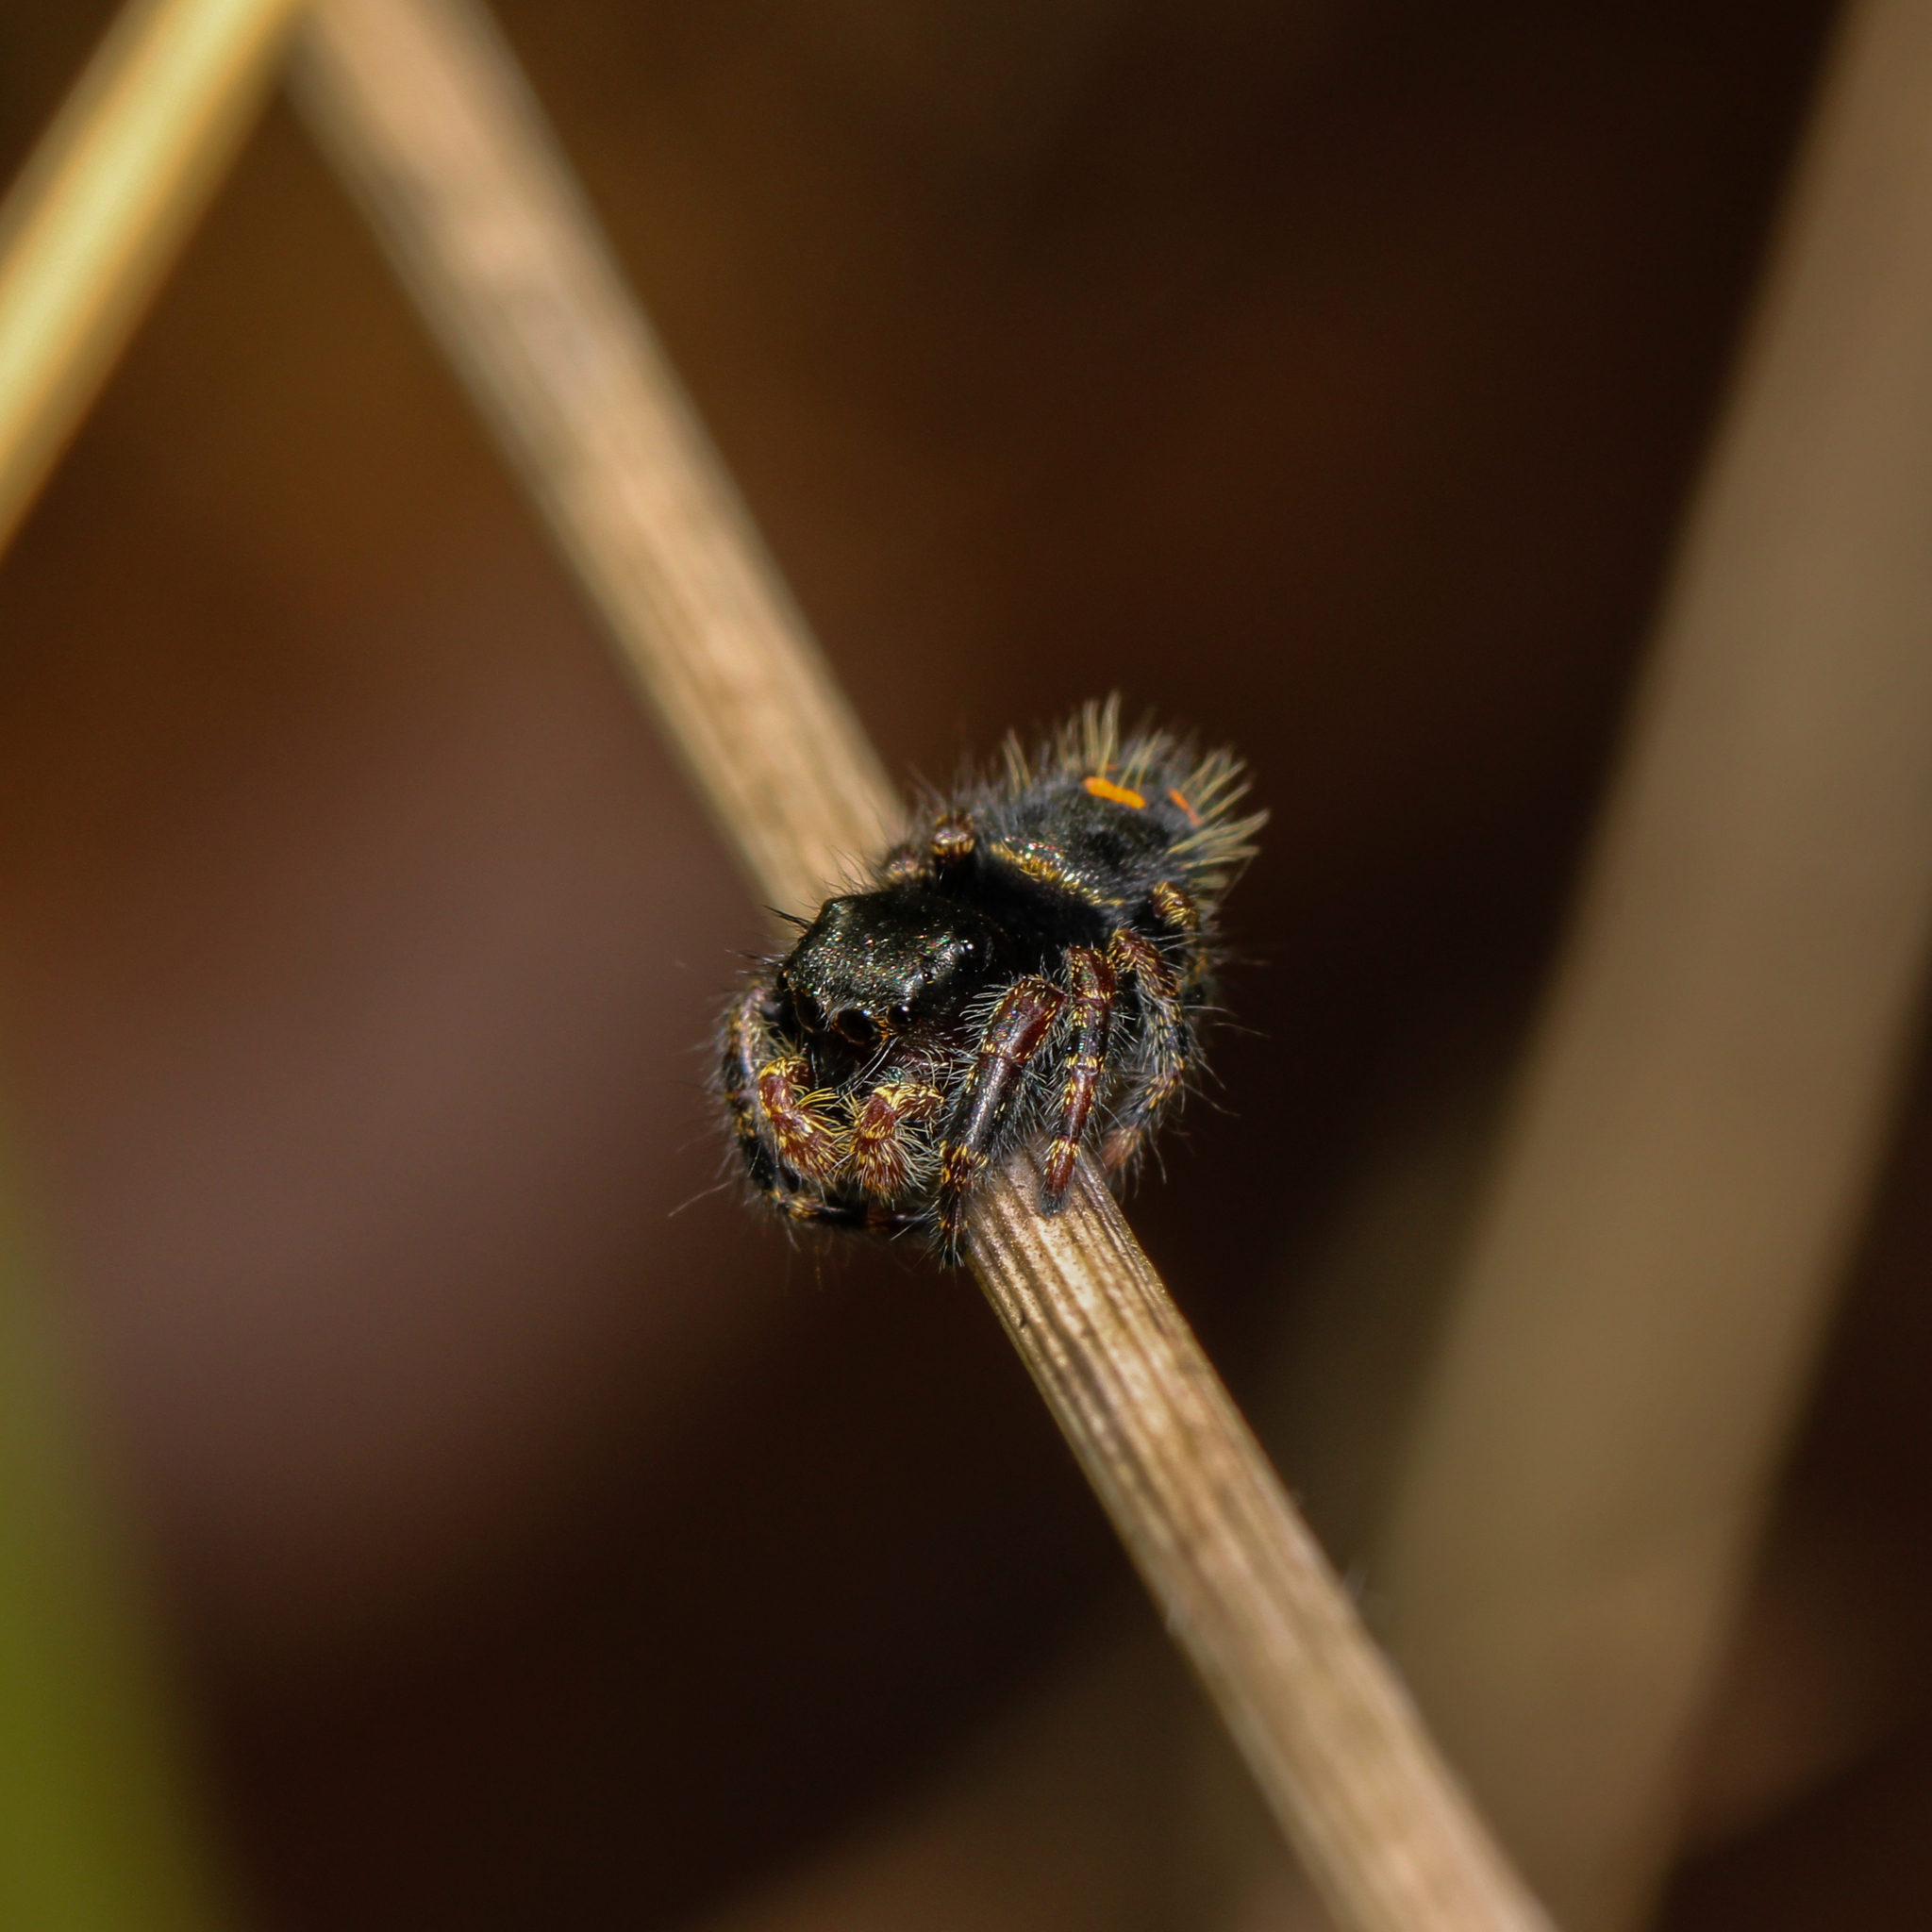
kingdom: Animalia
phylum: Arthropoda
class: Arachnida
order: Araneae
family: Salticidae
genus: Phidippus
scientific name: Phidippus audax
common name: Bold jumper
